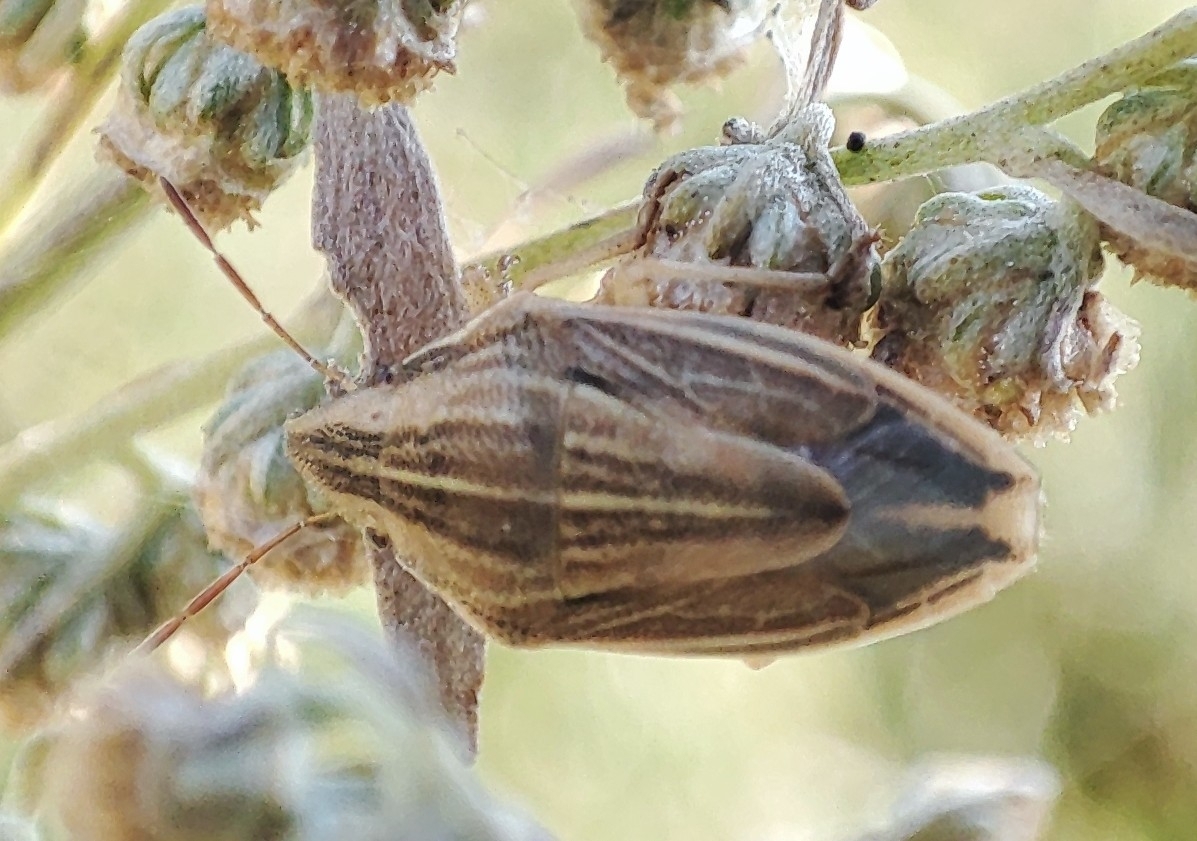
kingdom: Animalia
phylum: Arthropoda
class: Insecta
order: Hemiptera
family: Pentatomidae
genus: Aelia
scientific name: Aelia acuminata
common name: Bishop's mitre
